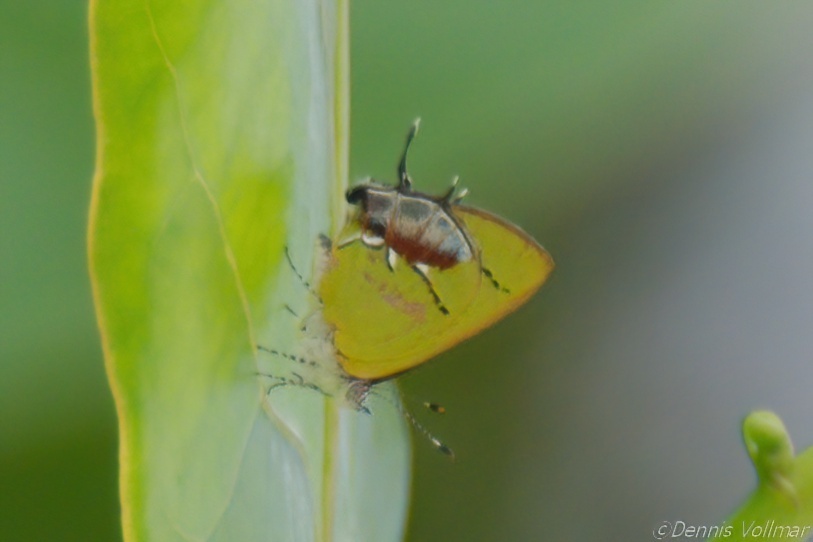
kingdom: Animalia
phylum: Arthropoda
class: Insecta
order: Lepidoptera
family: Lycaenidae
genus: Thecla
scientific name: Thecla maesites
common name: Verde azul hairstreak
